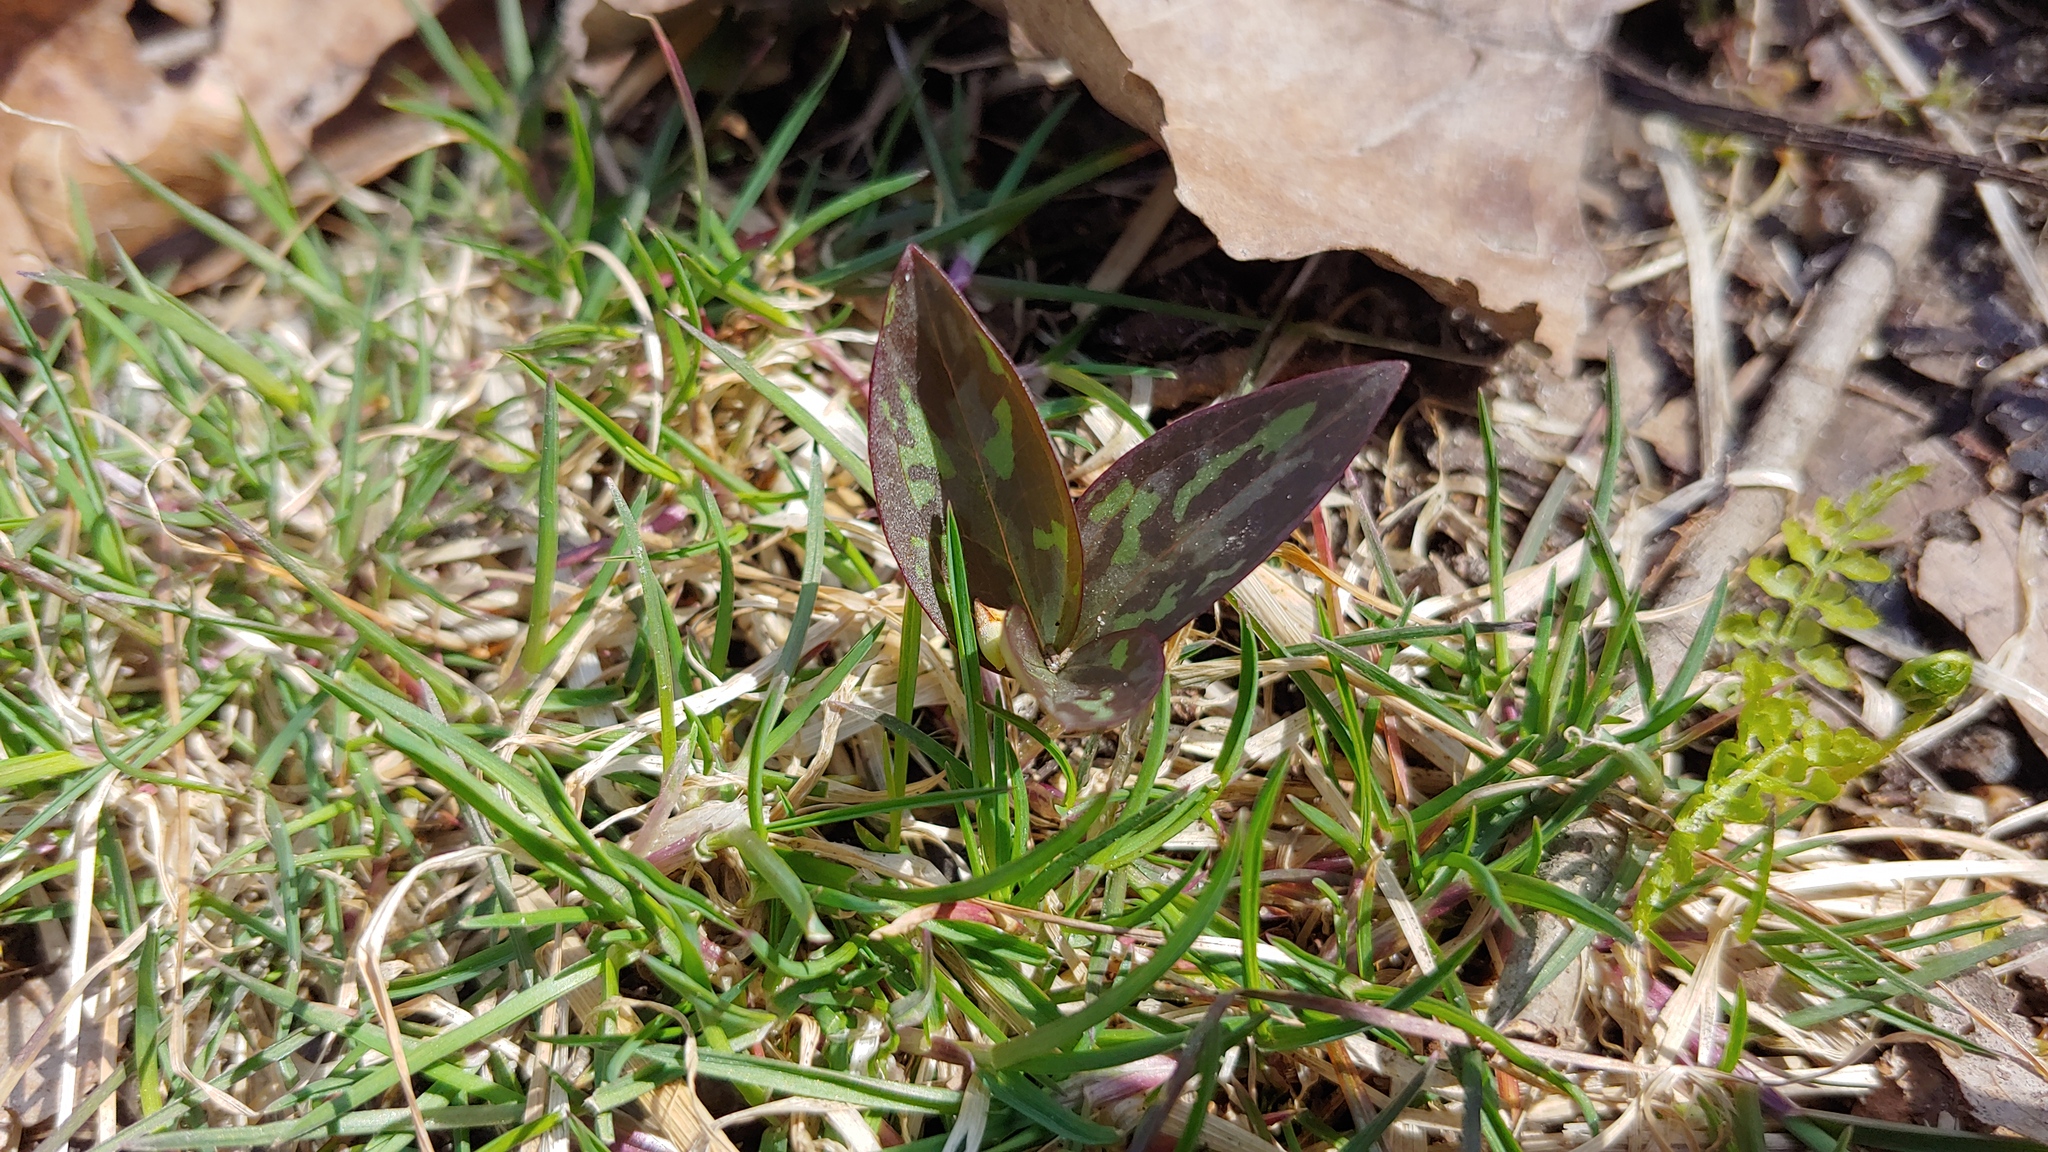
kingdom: Plantae
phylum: Tracheophyta
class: Liliopsida
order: Liliales
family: Melanthiaceae
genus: Trillium
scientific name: Trillium recurvatum
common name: Bloody butcher
